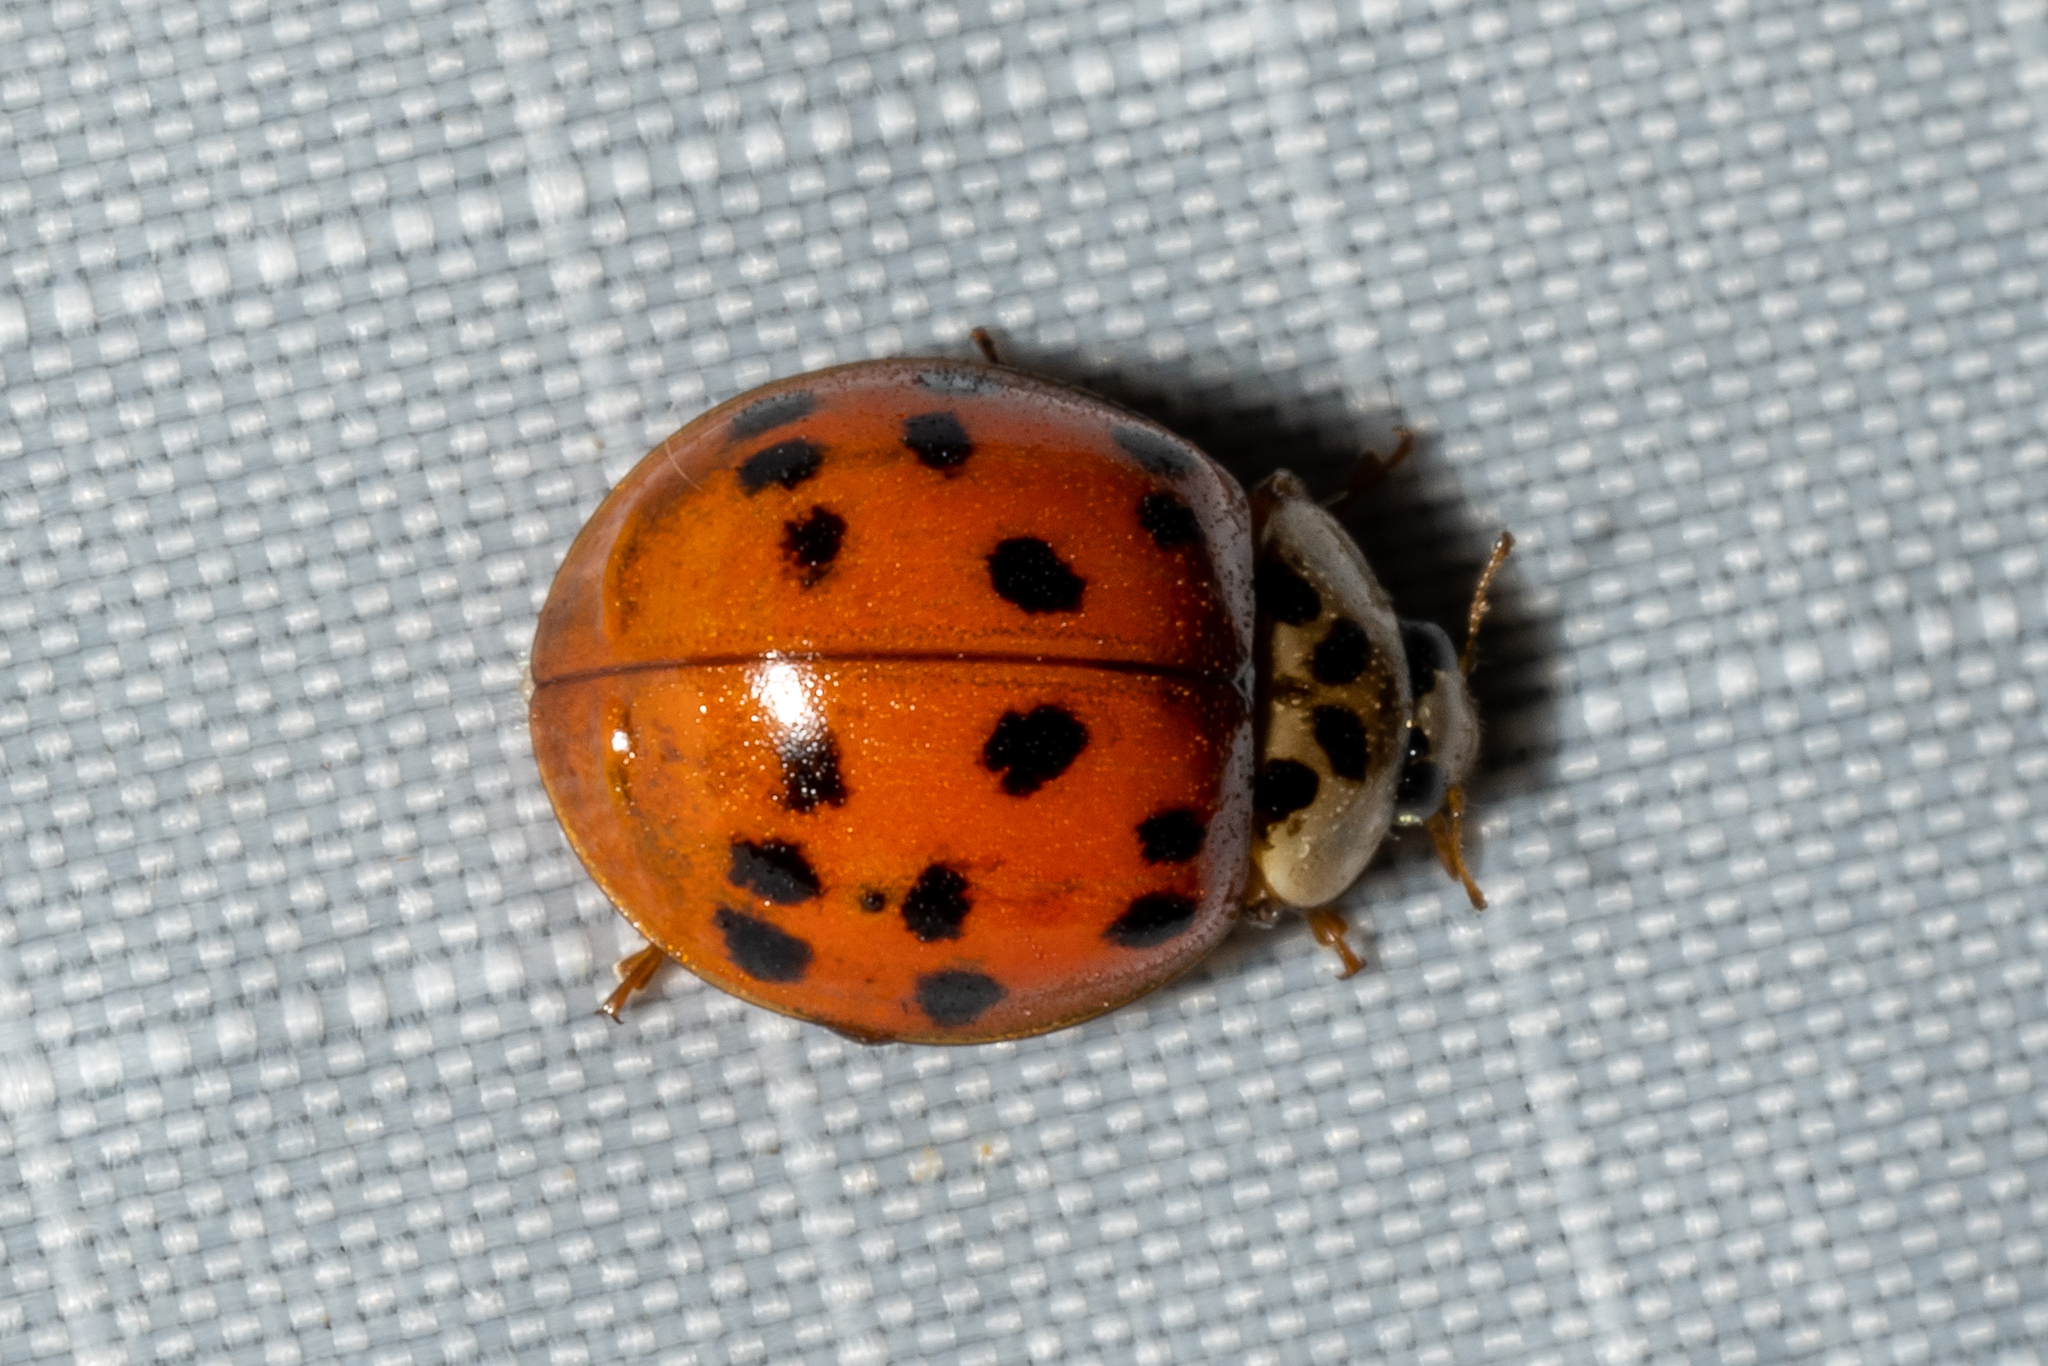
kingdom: Animalia
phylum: Arthropoda
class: Insecta
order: Coleoptera
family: Coccinellidae
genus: Harmonia
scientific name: Harmonia axyridis
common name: Harlequin ladybird
